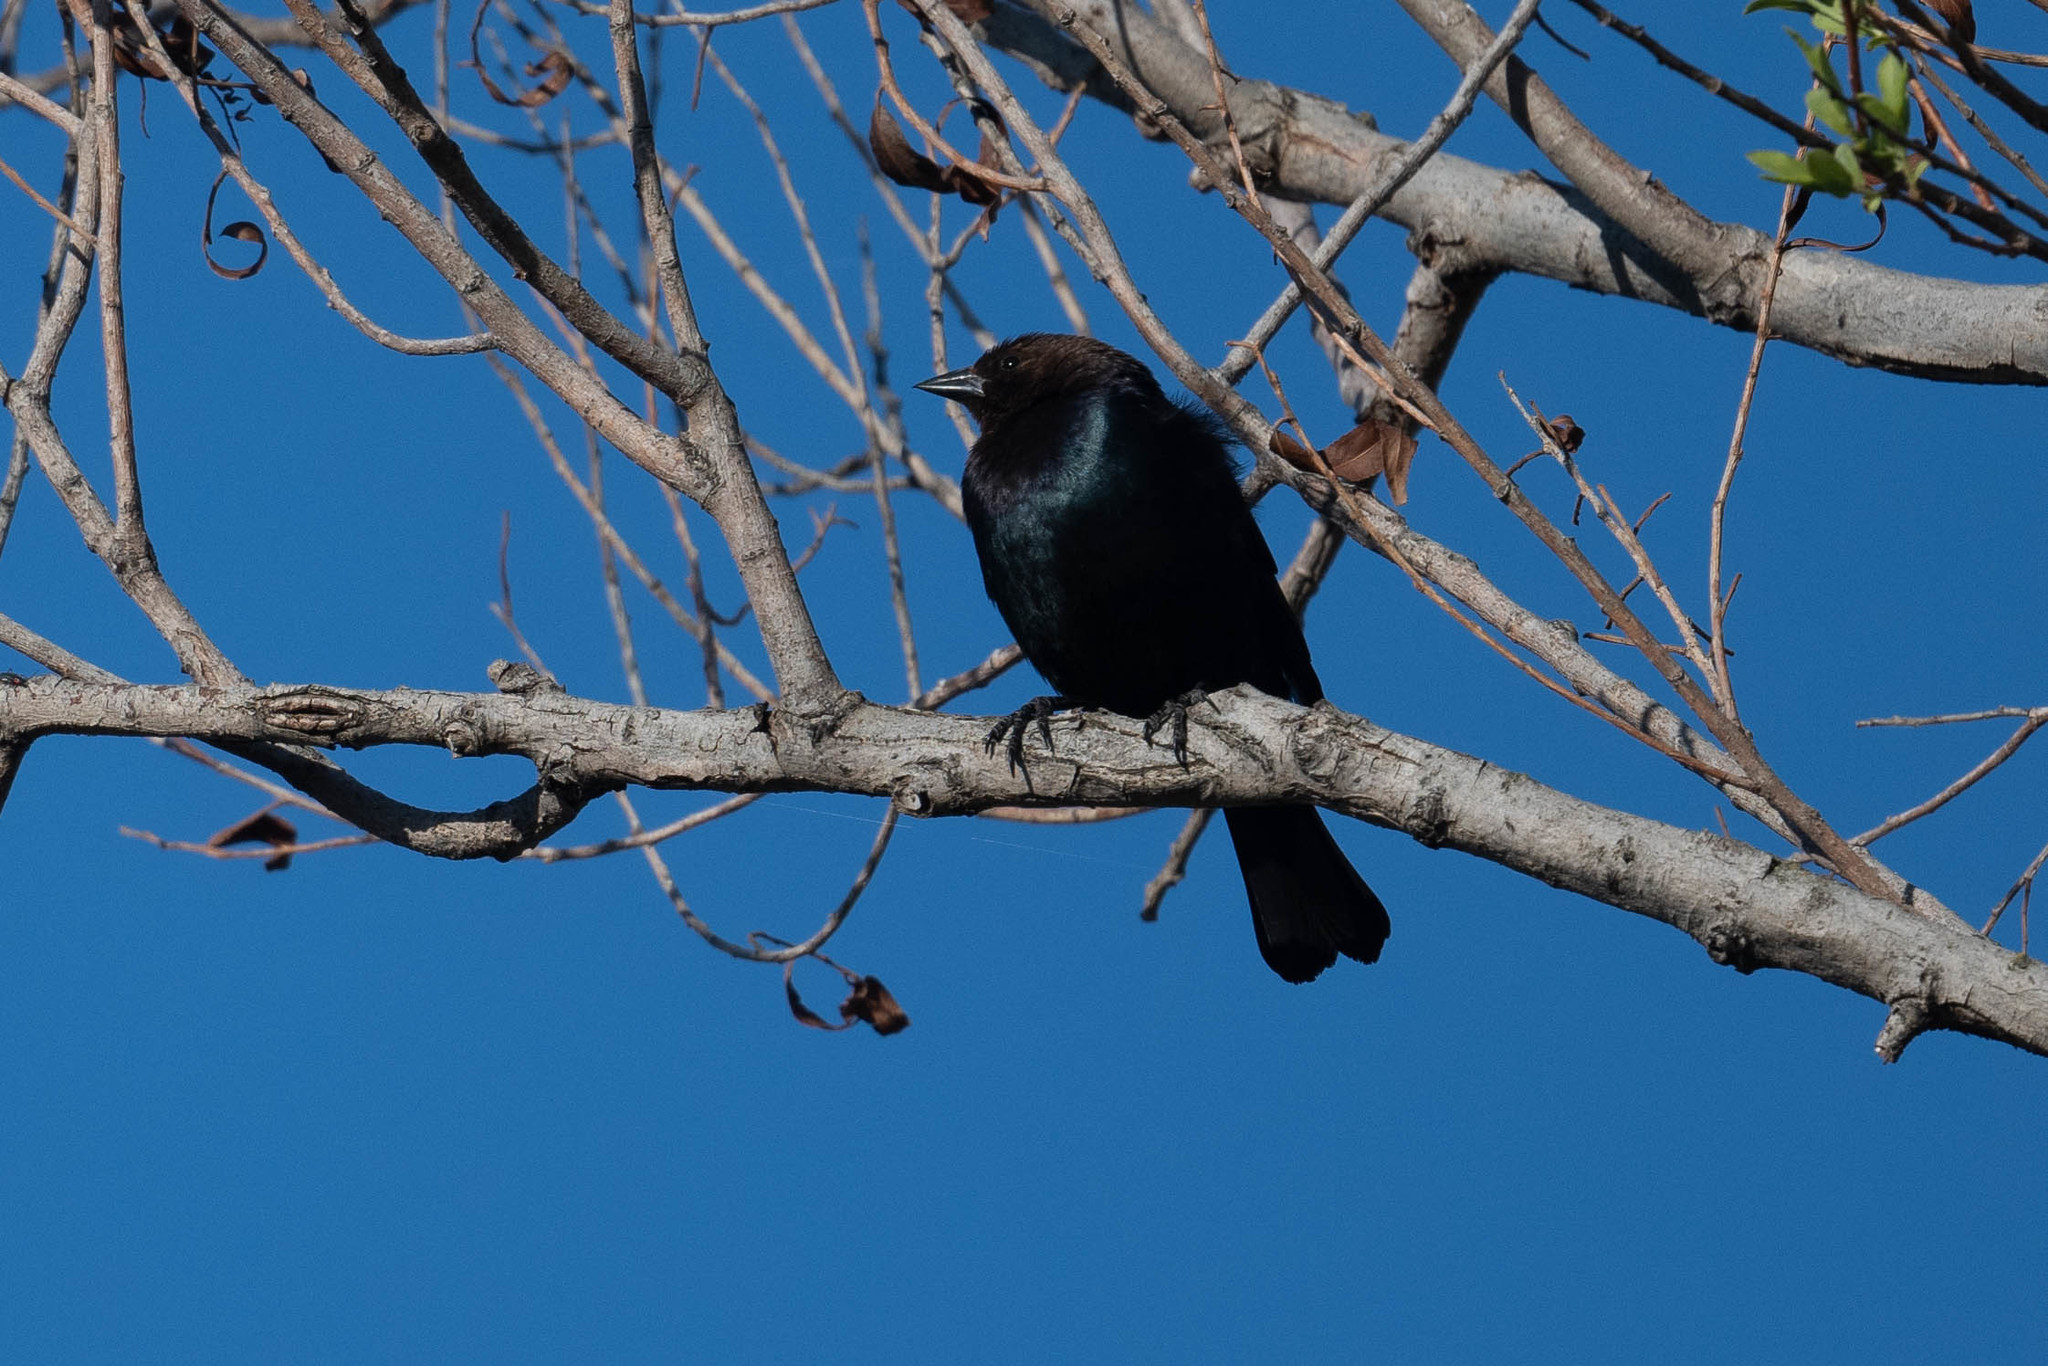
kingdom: Animalia
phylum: Chordata
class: Aves
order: Passeriformes
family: Icteridae
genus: Molothrus
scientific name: Molothrus ater
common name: Brown-headed cowbird
